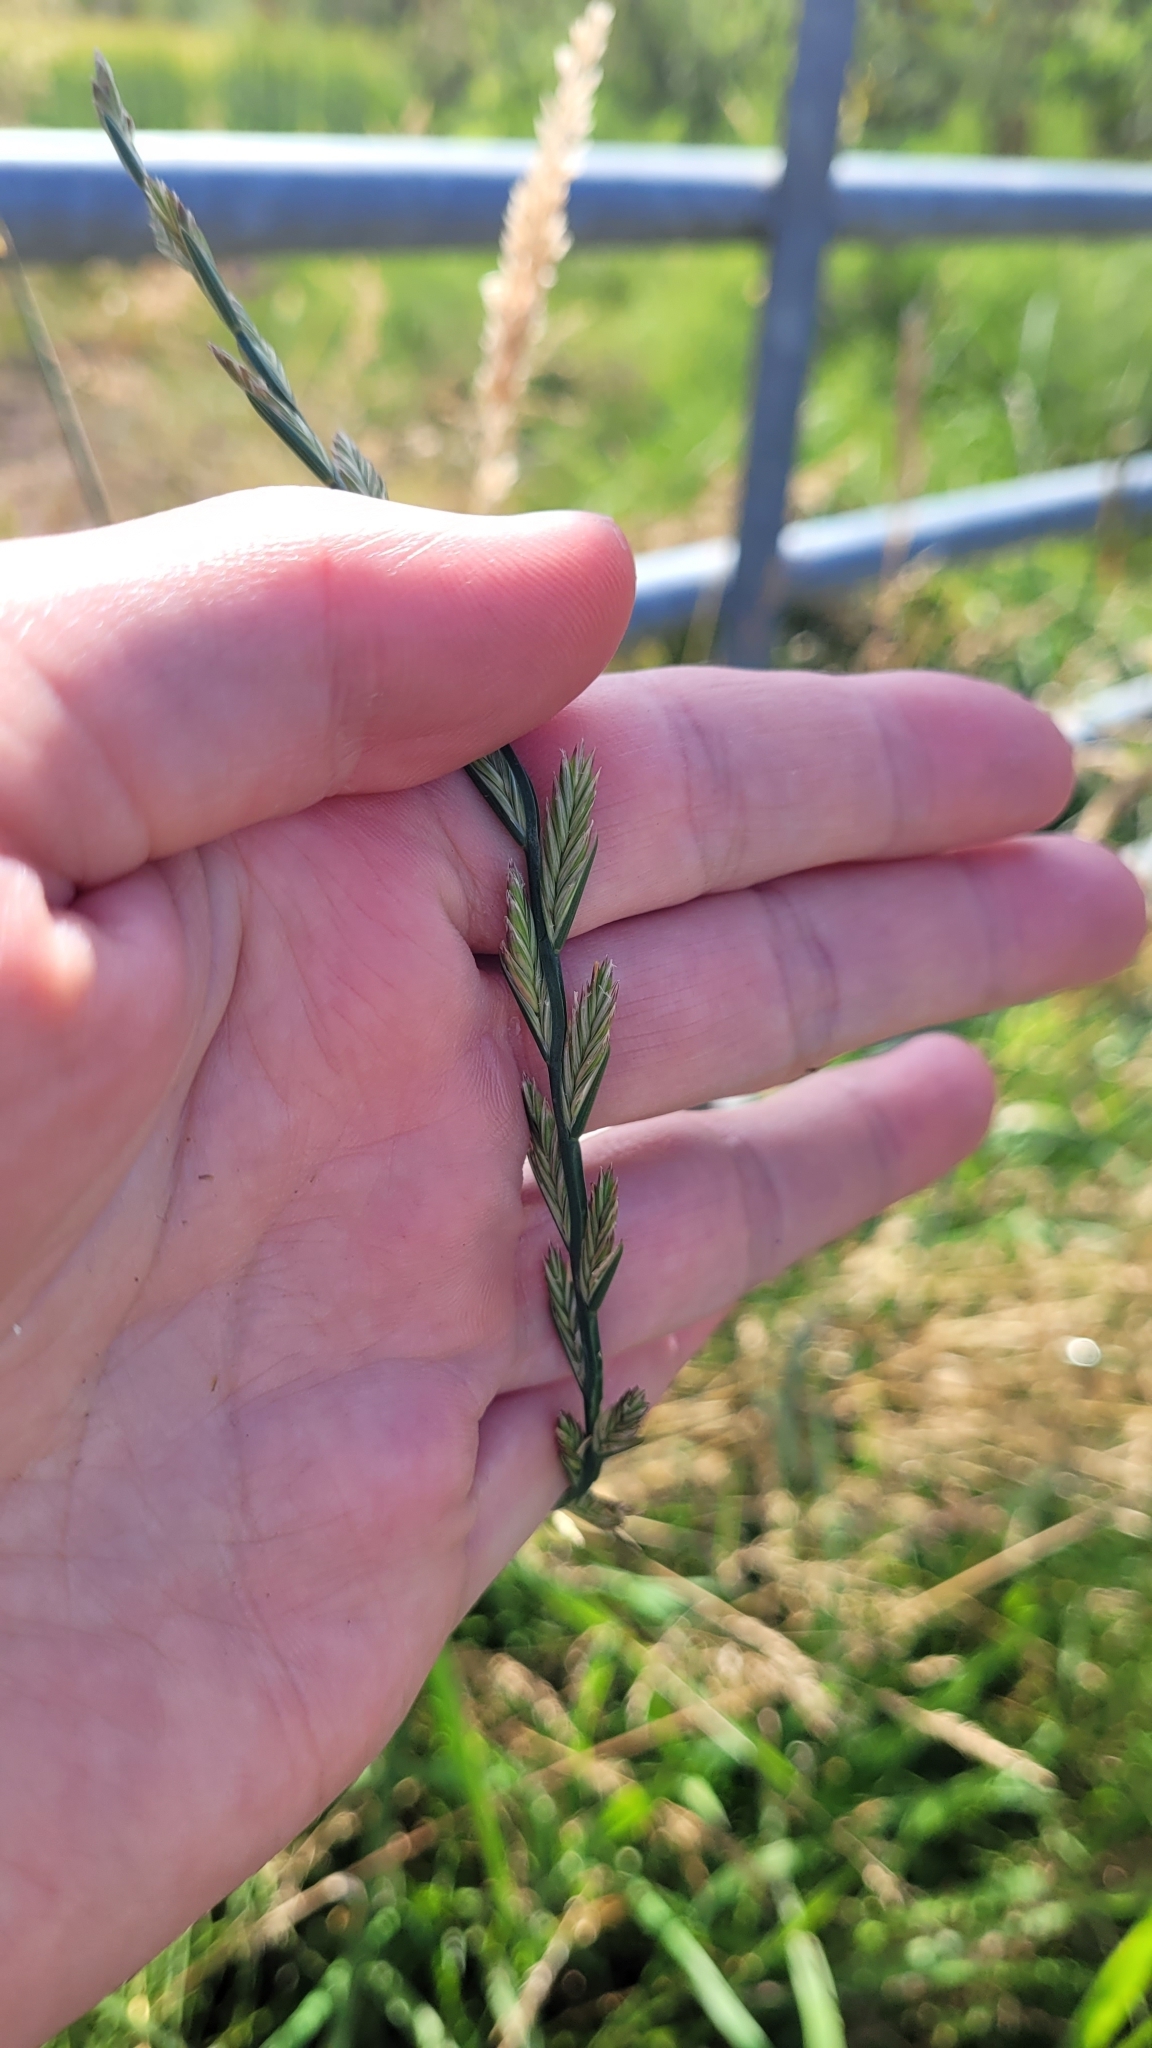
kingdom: Plantae
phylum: Tracheophyta
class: Liliopsida
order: Poales
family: Poaceae
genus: Lolium
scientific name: Lolium perenne
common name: Perennial ryegrass
